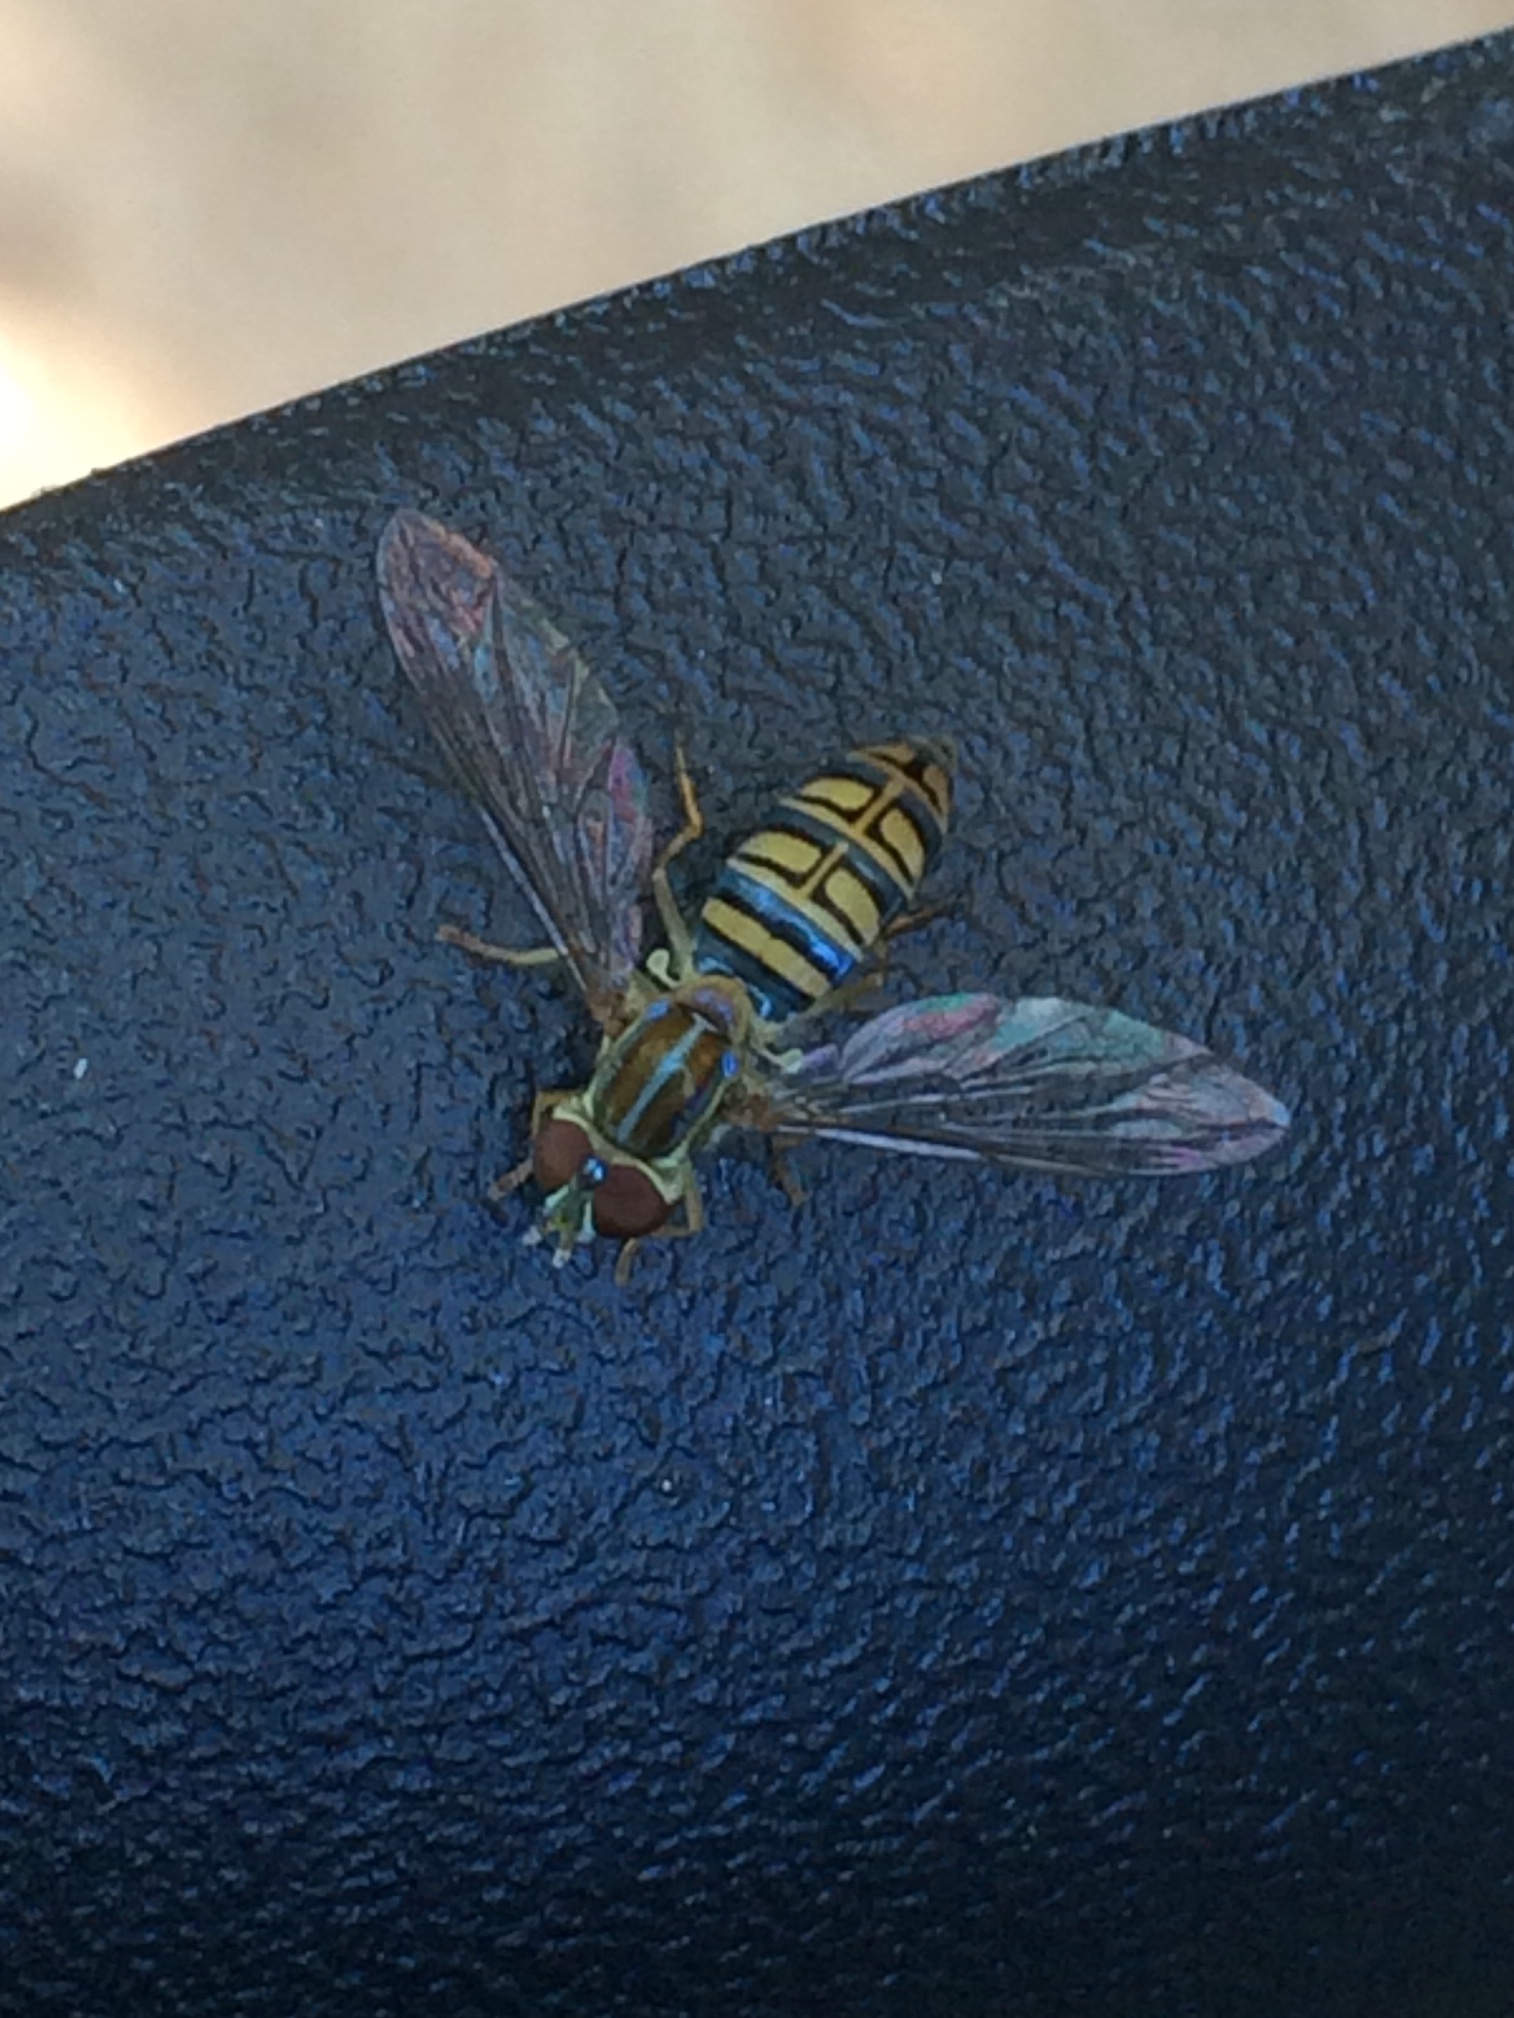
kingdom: Animalia
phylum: Arthropoda
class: Insecta
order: Diptera
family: Syrphidae
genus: Toxomerus
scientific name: Toxomerus politus
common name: Maize calligrapher
